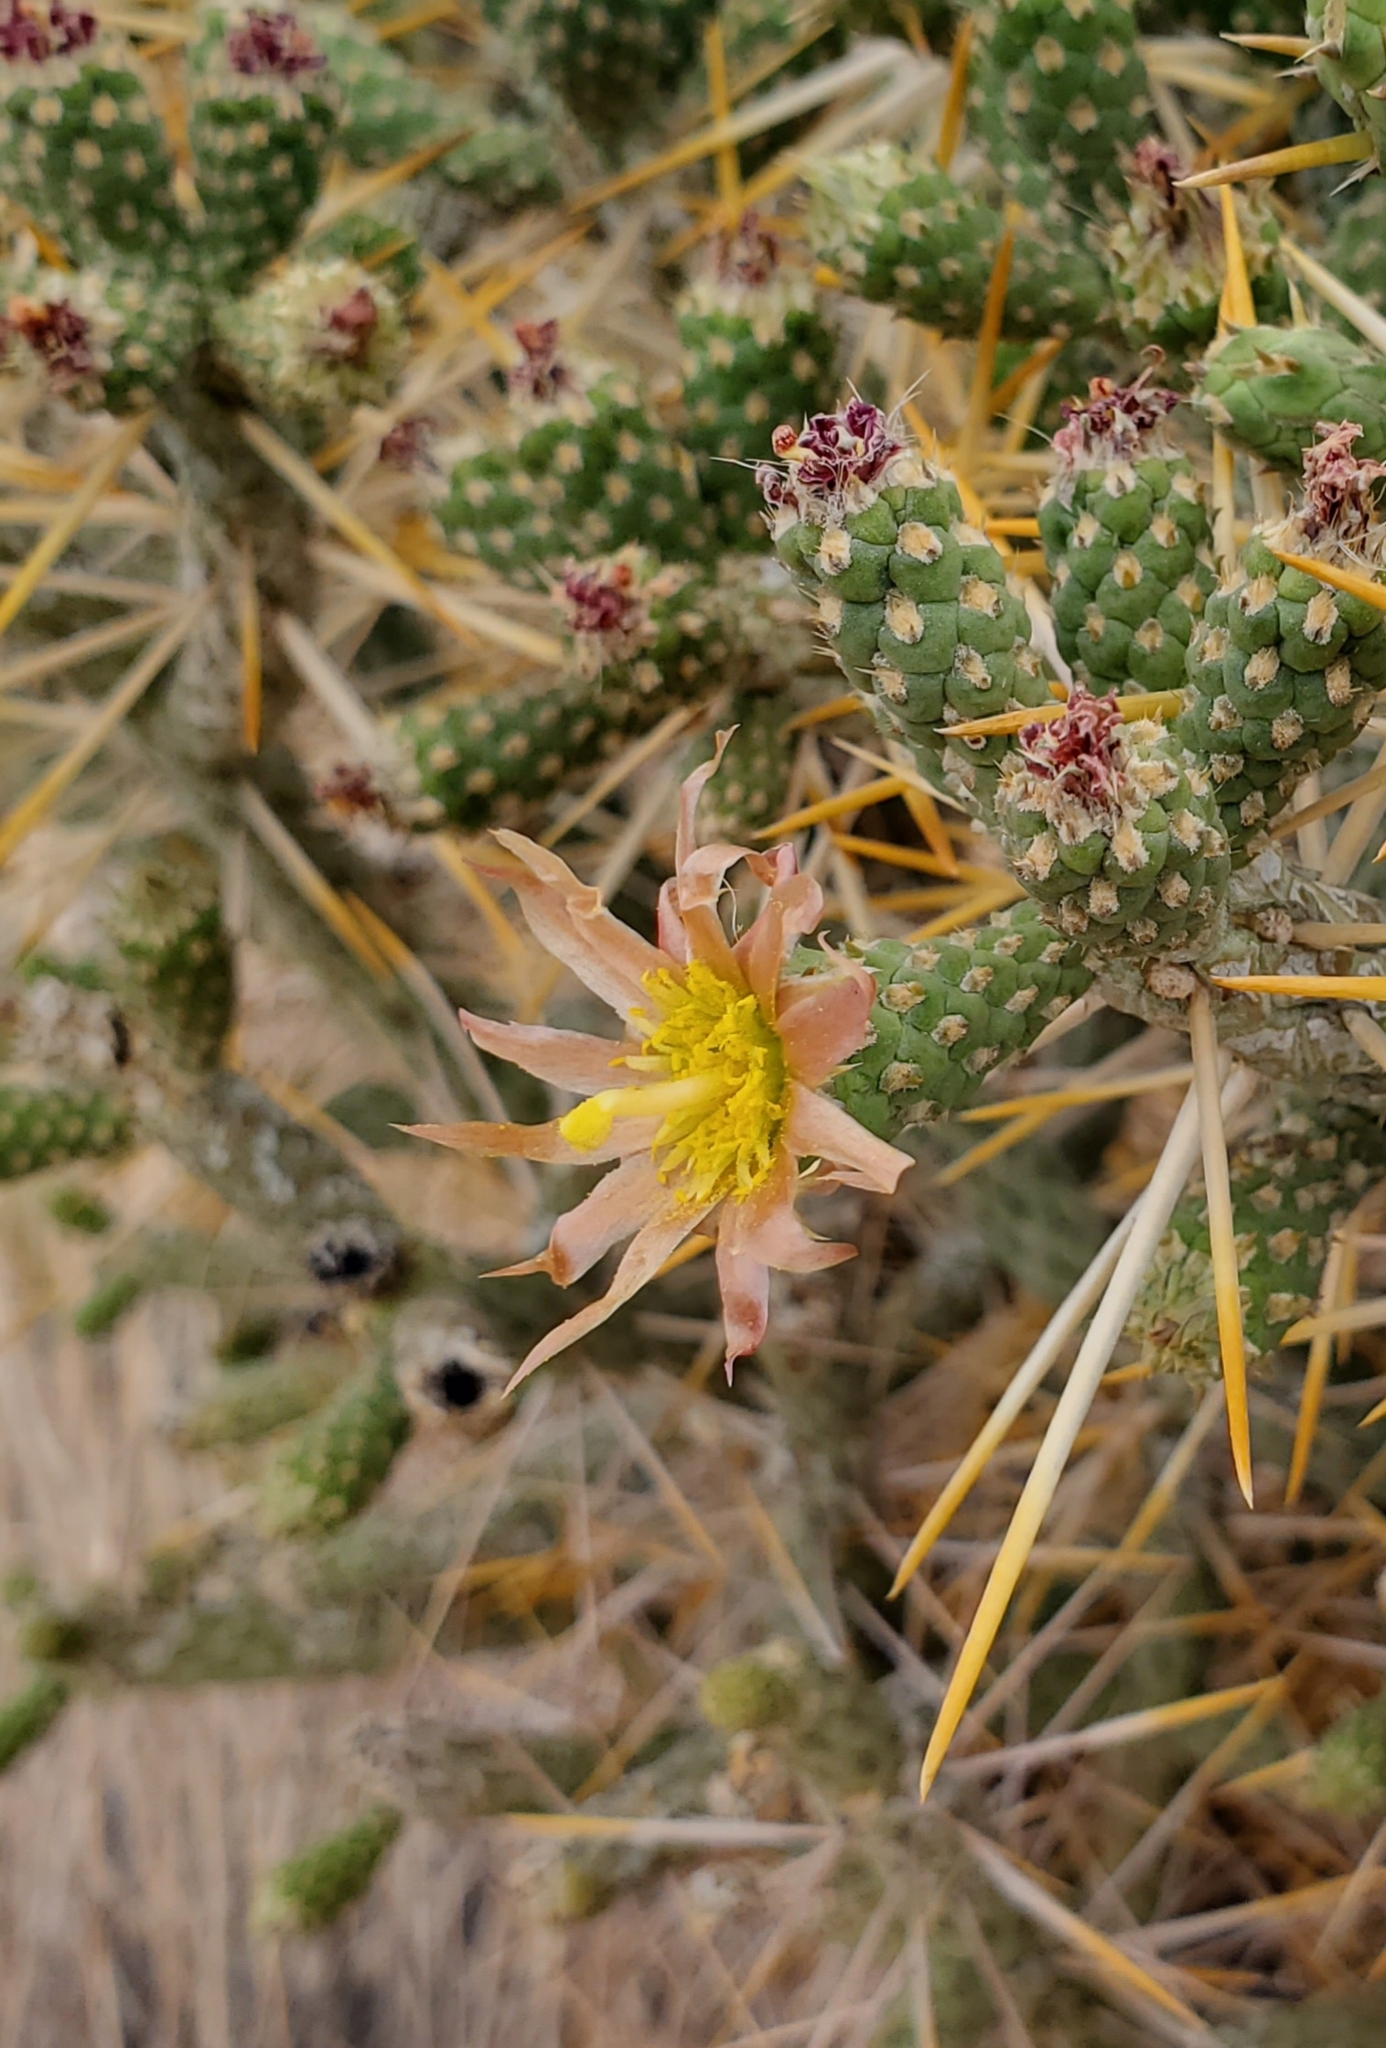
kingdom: Plantae
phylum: Tracheophyta
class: Magnoliopsida
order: Caryophyllales
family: Cactaceae
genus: Cylindropuntia
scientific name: Cylindropuntia ramosissima
